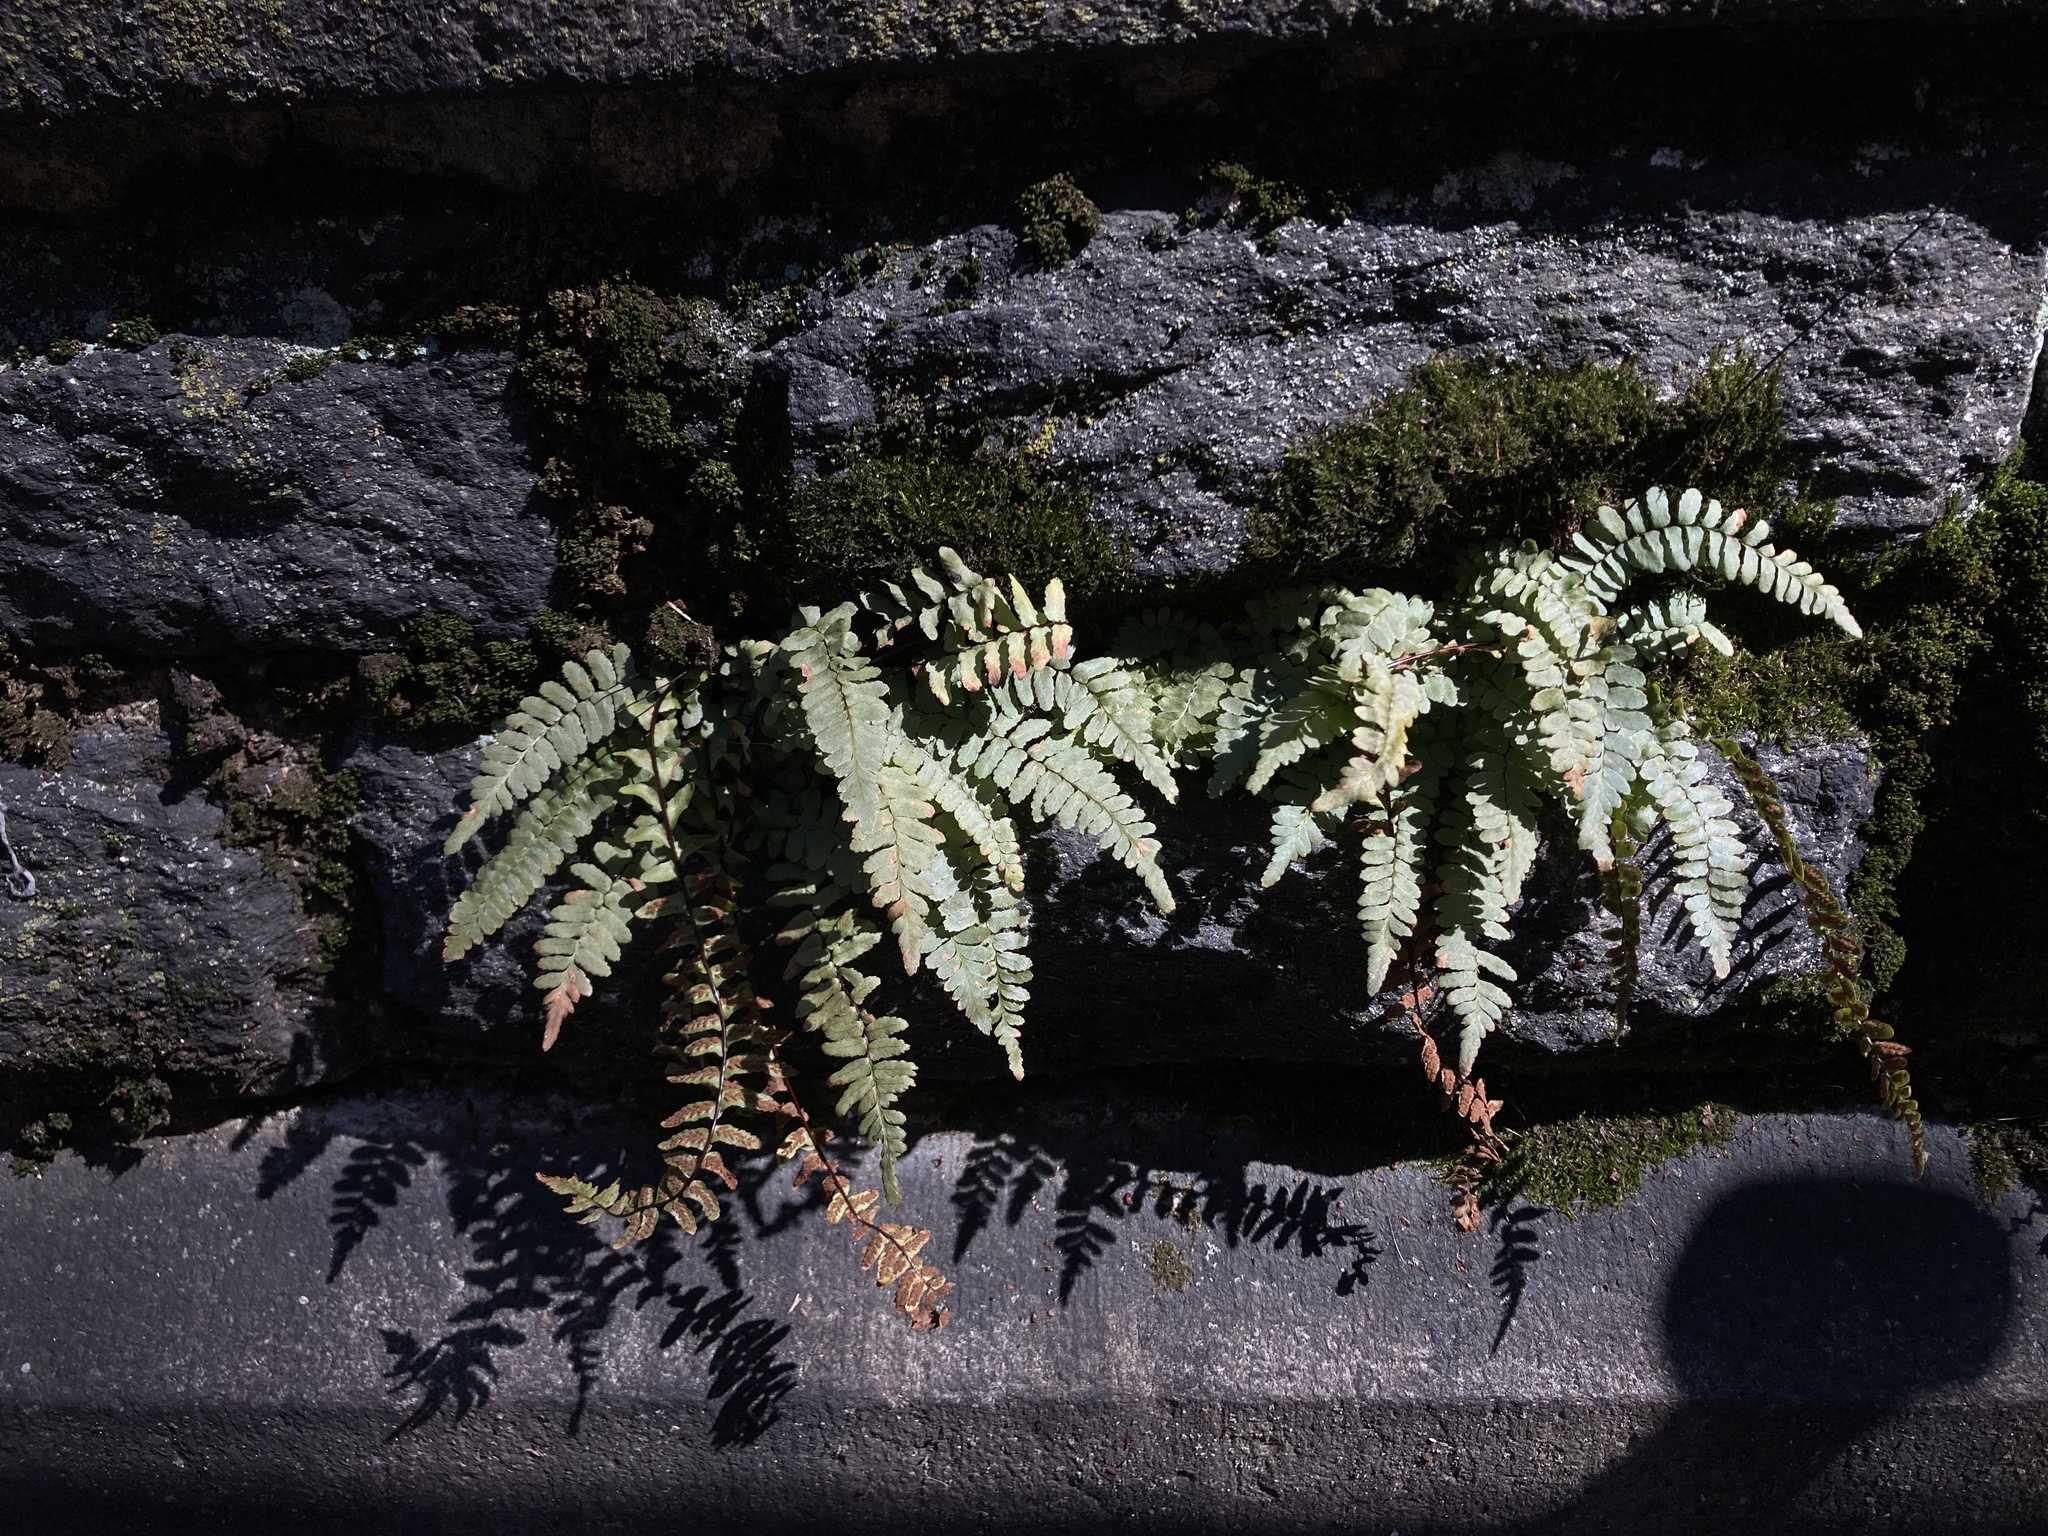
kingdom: Plantae
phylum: Tracheophyta
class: Polypodiopsida
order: Polypodiales
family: Aspleniaceae
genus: Asplenium
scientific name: Asplenium platyneuron
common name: Ebony spleenwort
